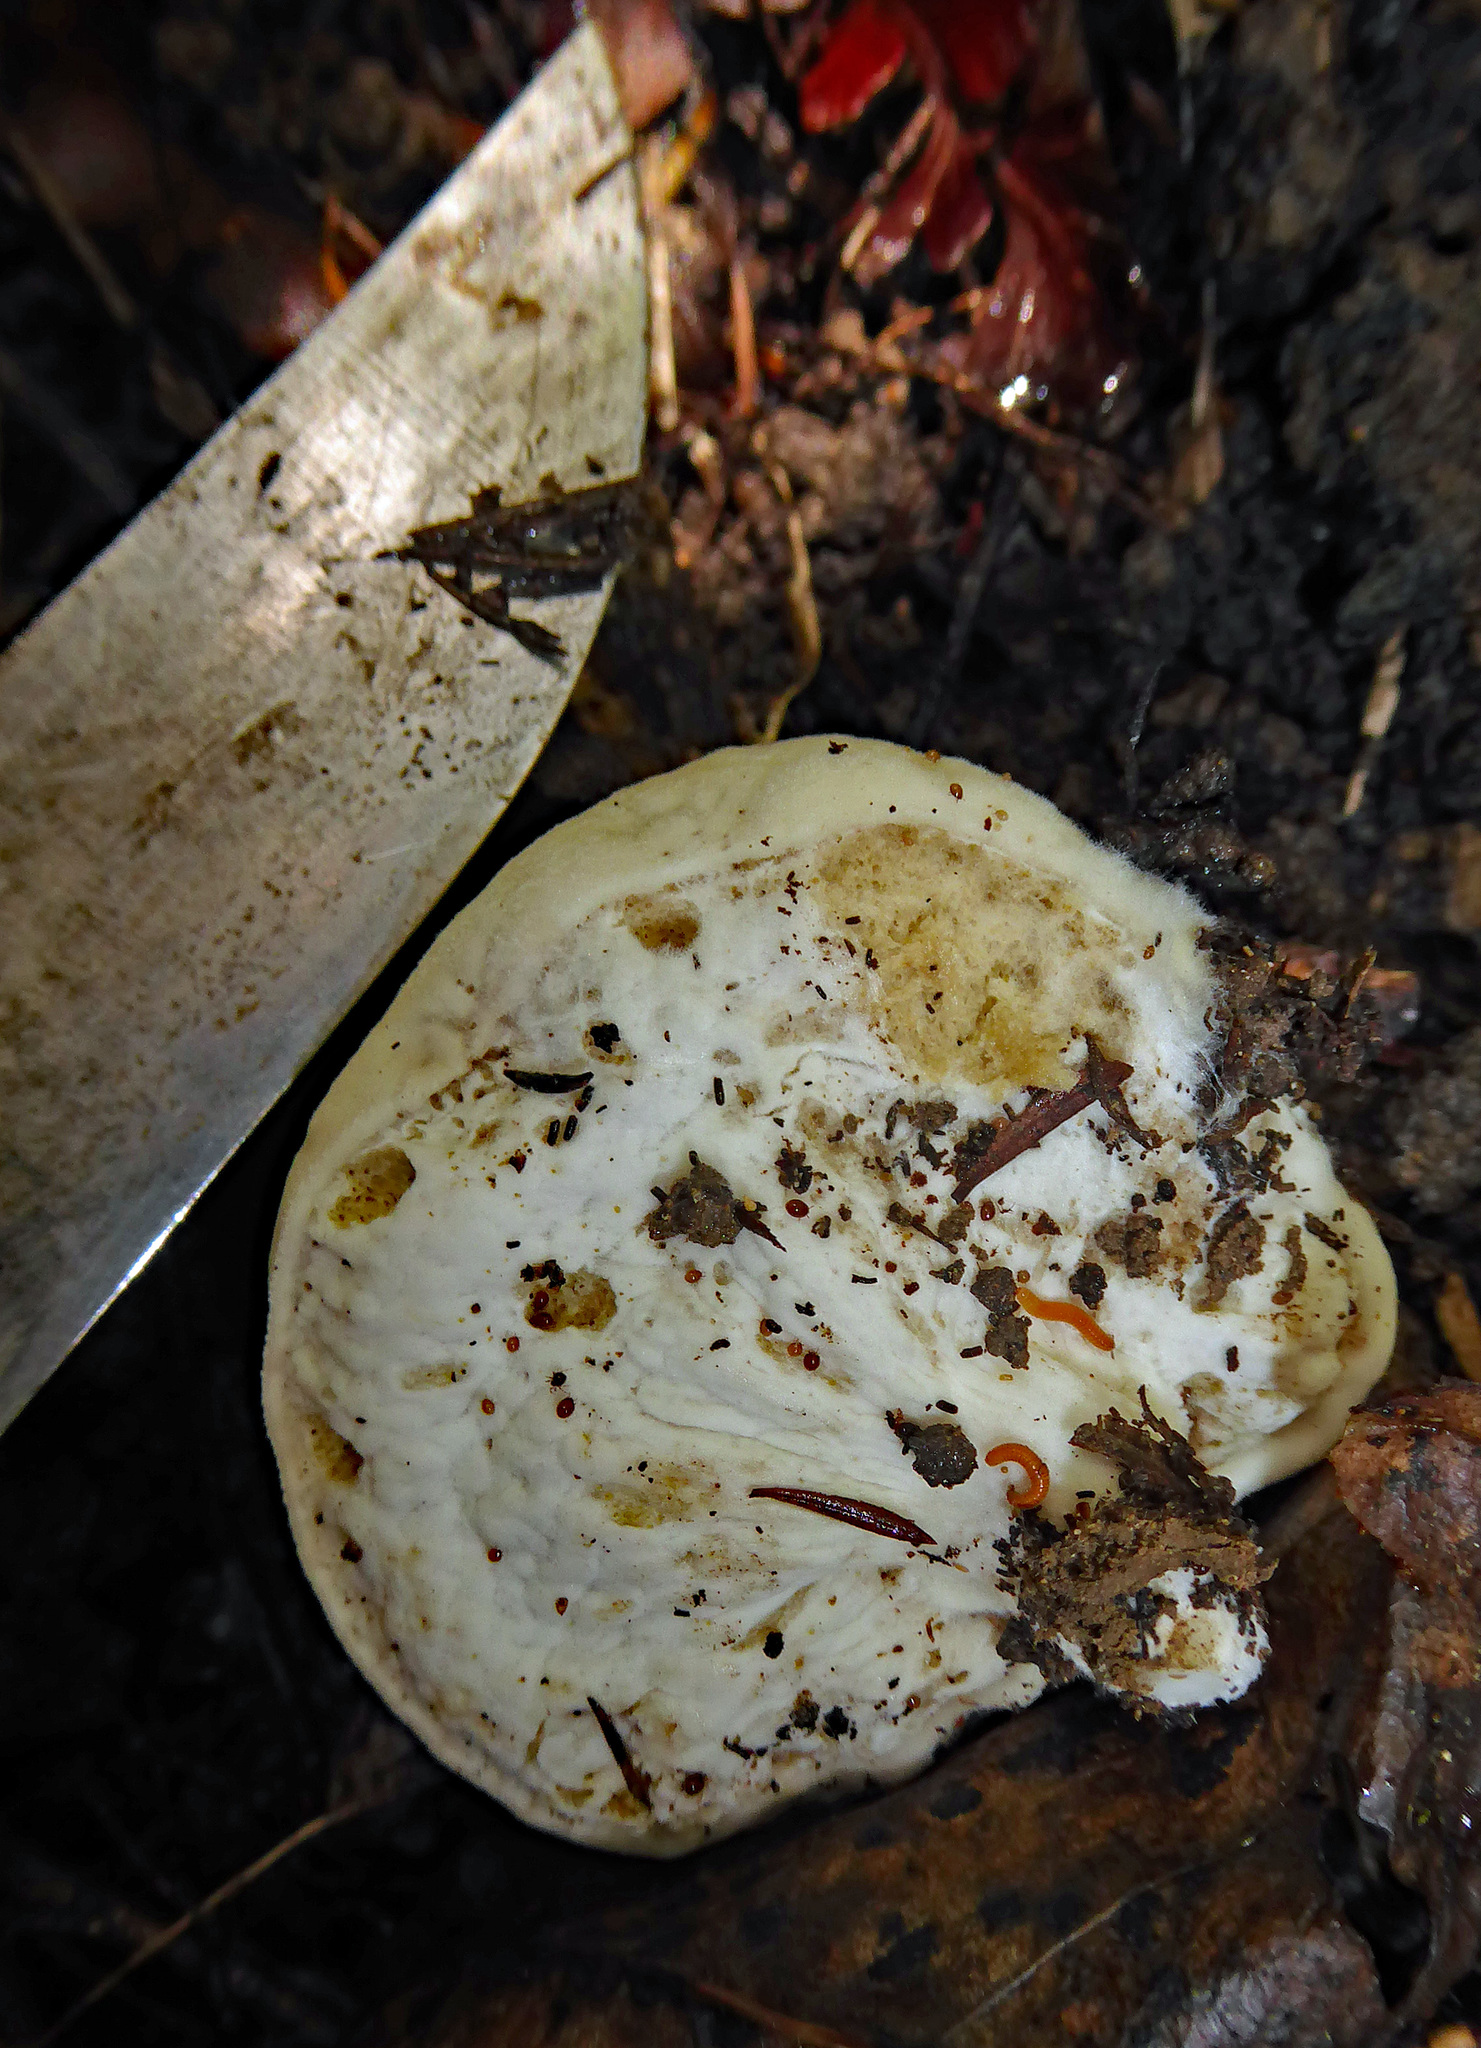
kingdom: Fungi
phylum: Basidiomycota
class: Agaricomycetes
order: Boletales
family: Boletaceae
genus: Boletus
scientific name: Boletus semigastroideus
